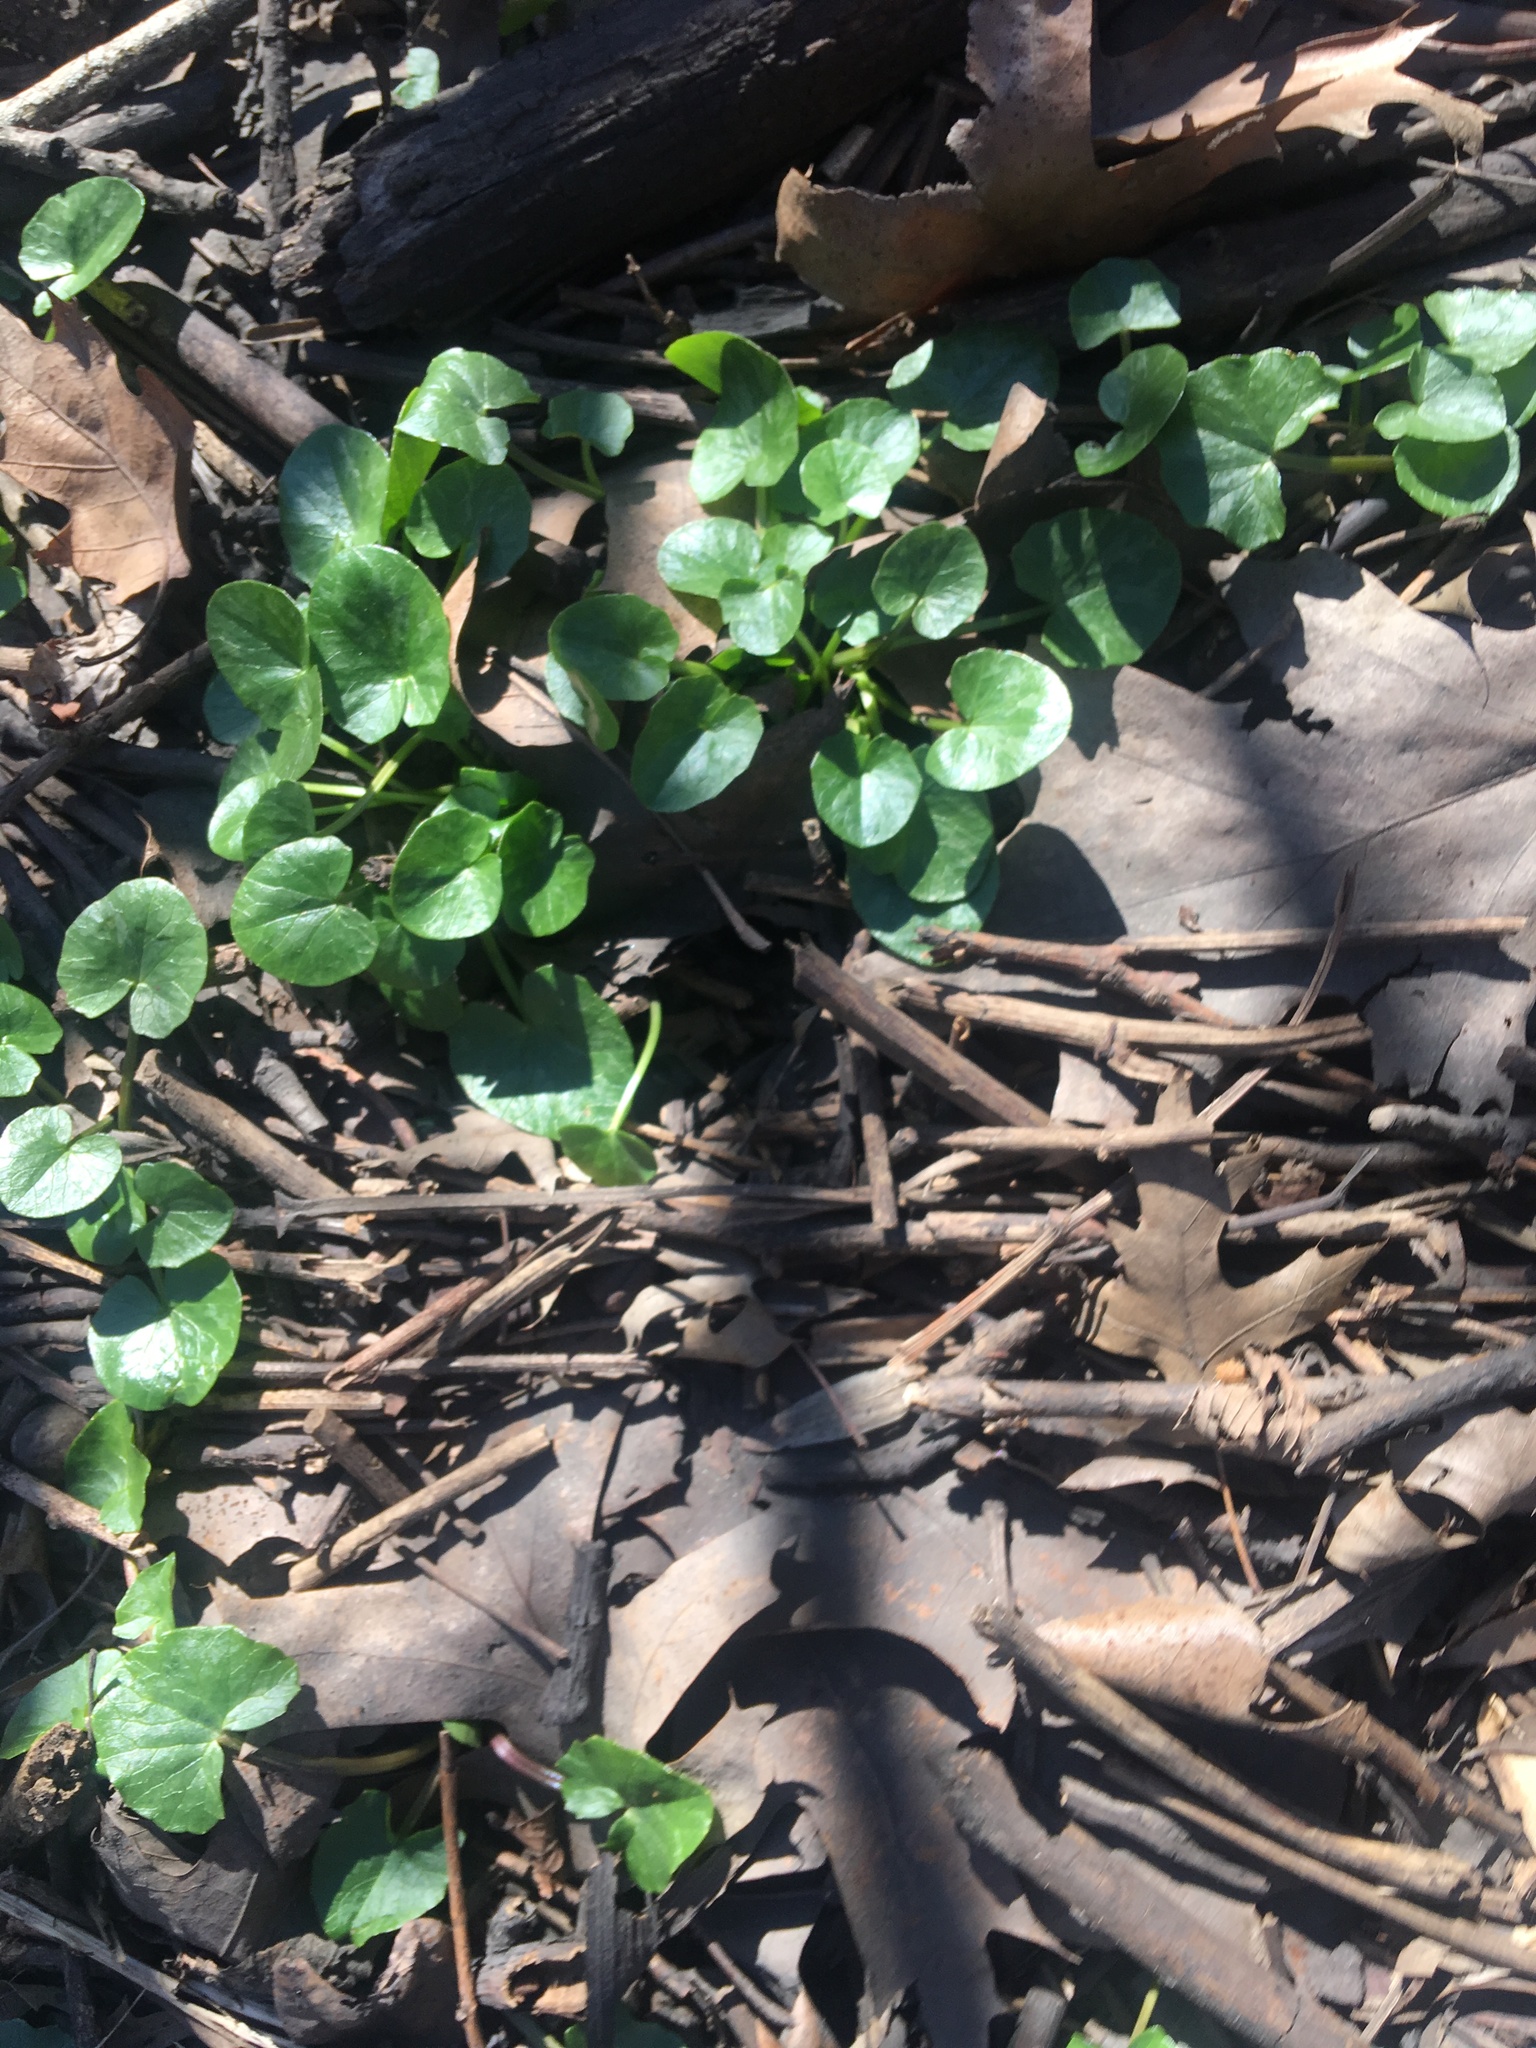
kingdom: Plantae
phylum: Tracheophyta
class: Magnoliopsida
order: Ranunculales
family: Ranunculaceae
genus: Ficaria
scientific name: Ficaria verna
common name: Lesser celandine
